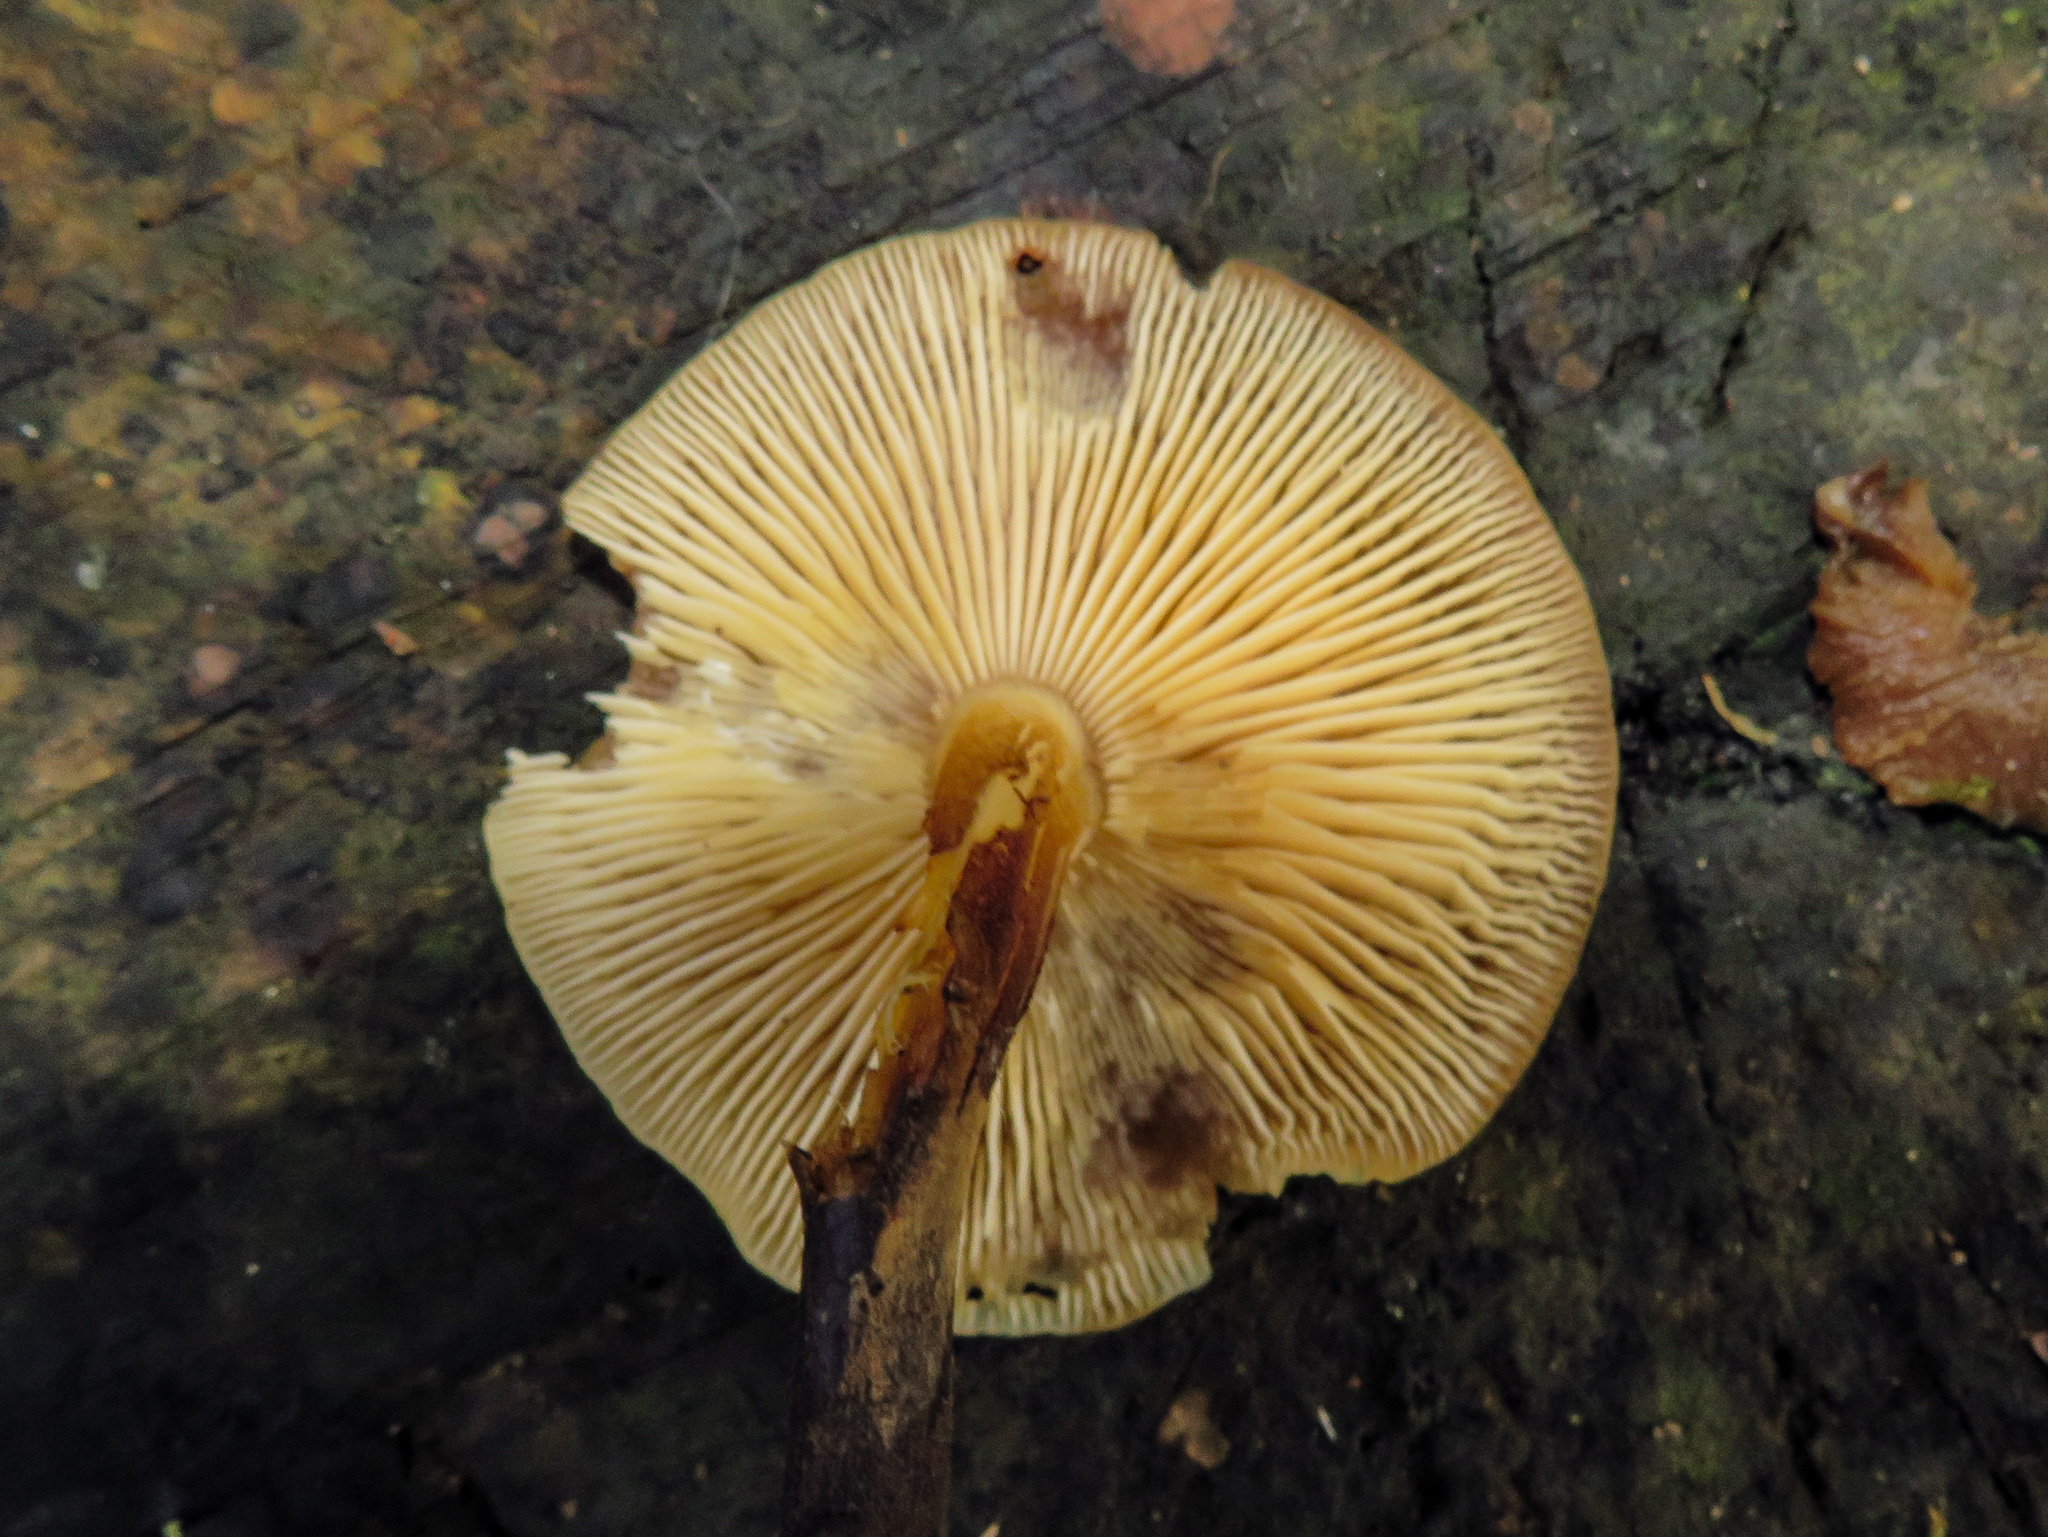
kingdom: Fungi
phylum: Basidiomycota
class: Agaricomycetes
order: Agaricales
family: Physalacriaceae
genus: Flammulina
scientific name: Flammulina velutipes
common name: Velvet shank
